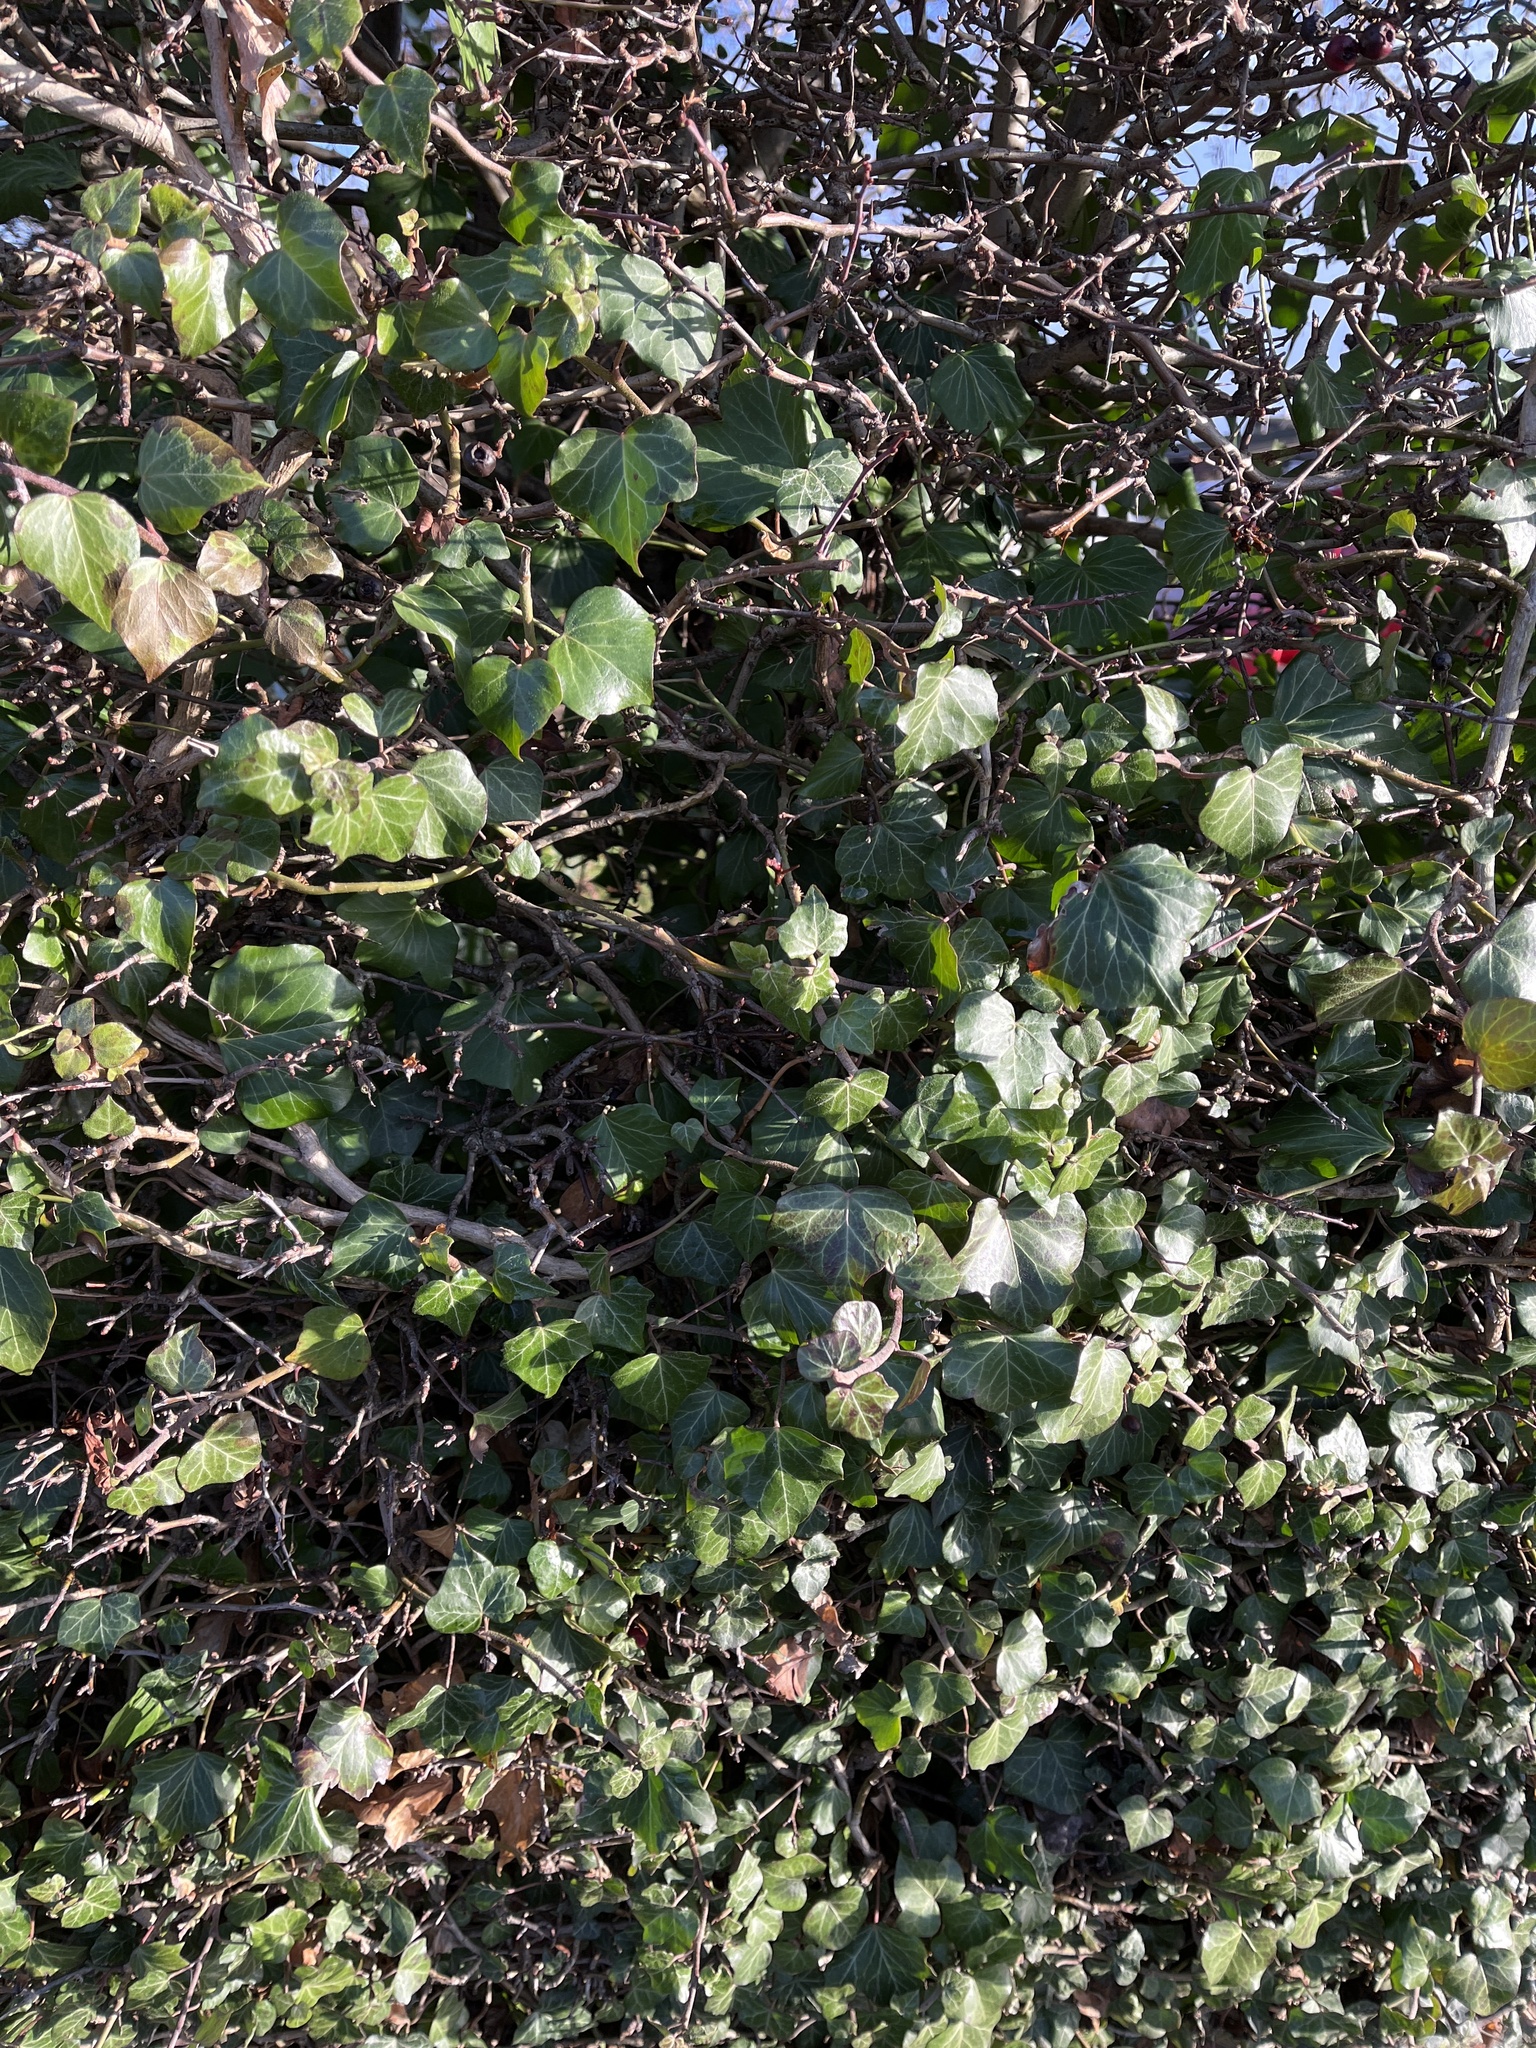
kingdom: Plantae
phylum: Tracheophyta
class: Magnoliopsida
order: Apiales
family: Araliaceae
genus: Hedera
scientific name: Hedera helix
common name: Ivy
